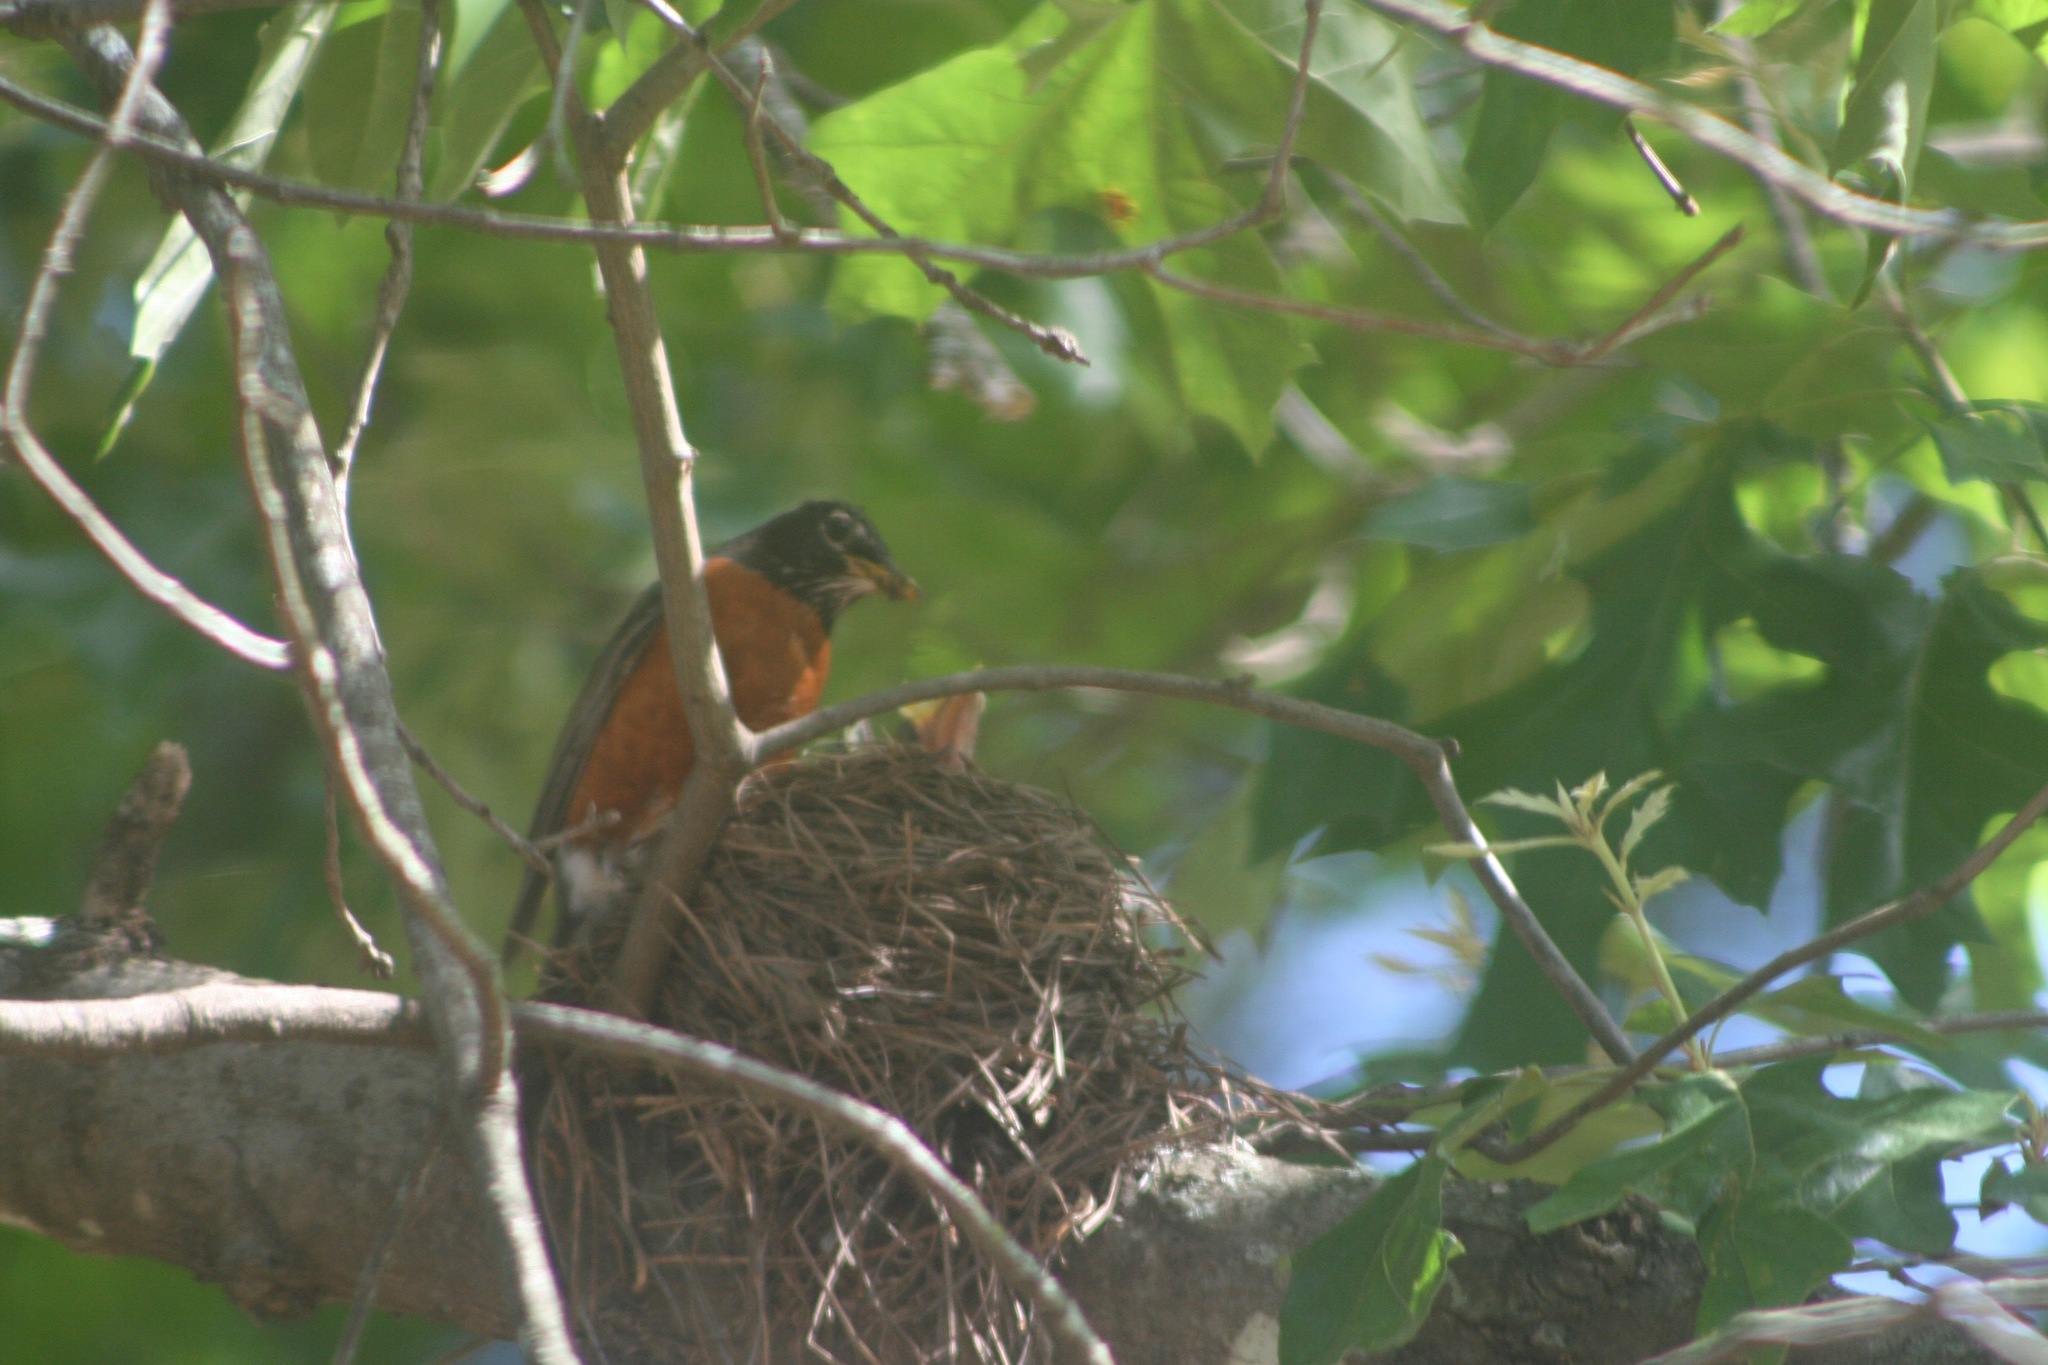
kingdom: Animalia
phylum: Chordata
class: Aves
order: Passeriformes
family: Turdidae
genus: Turdus
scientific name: Turdus migratorius
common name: American robin
